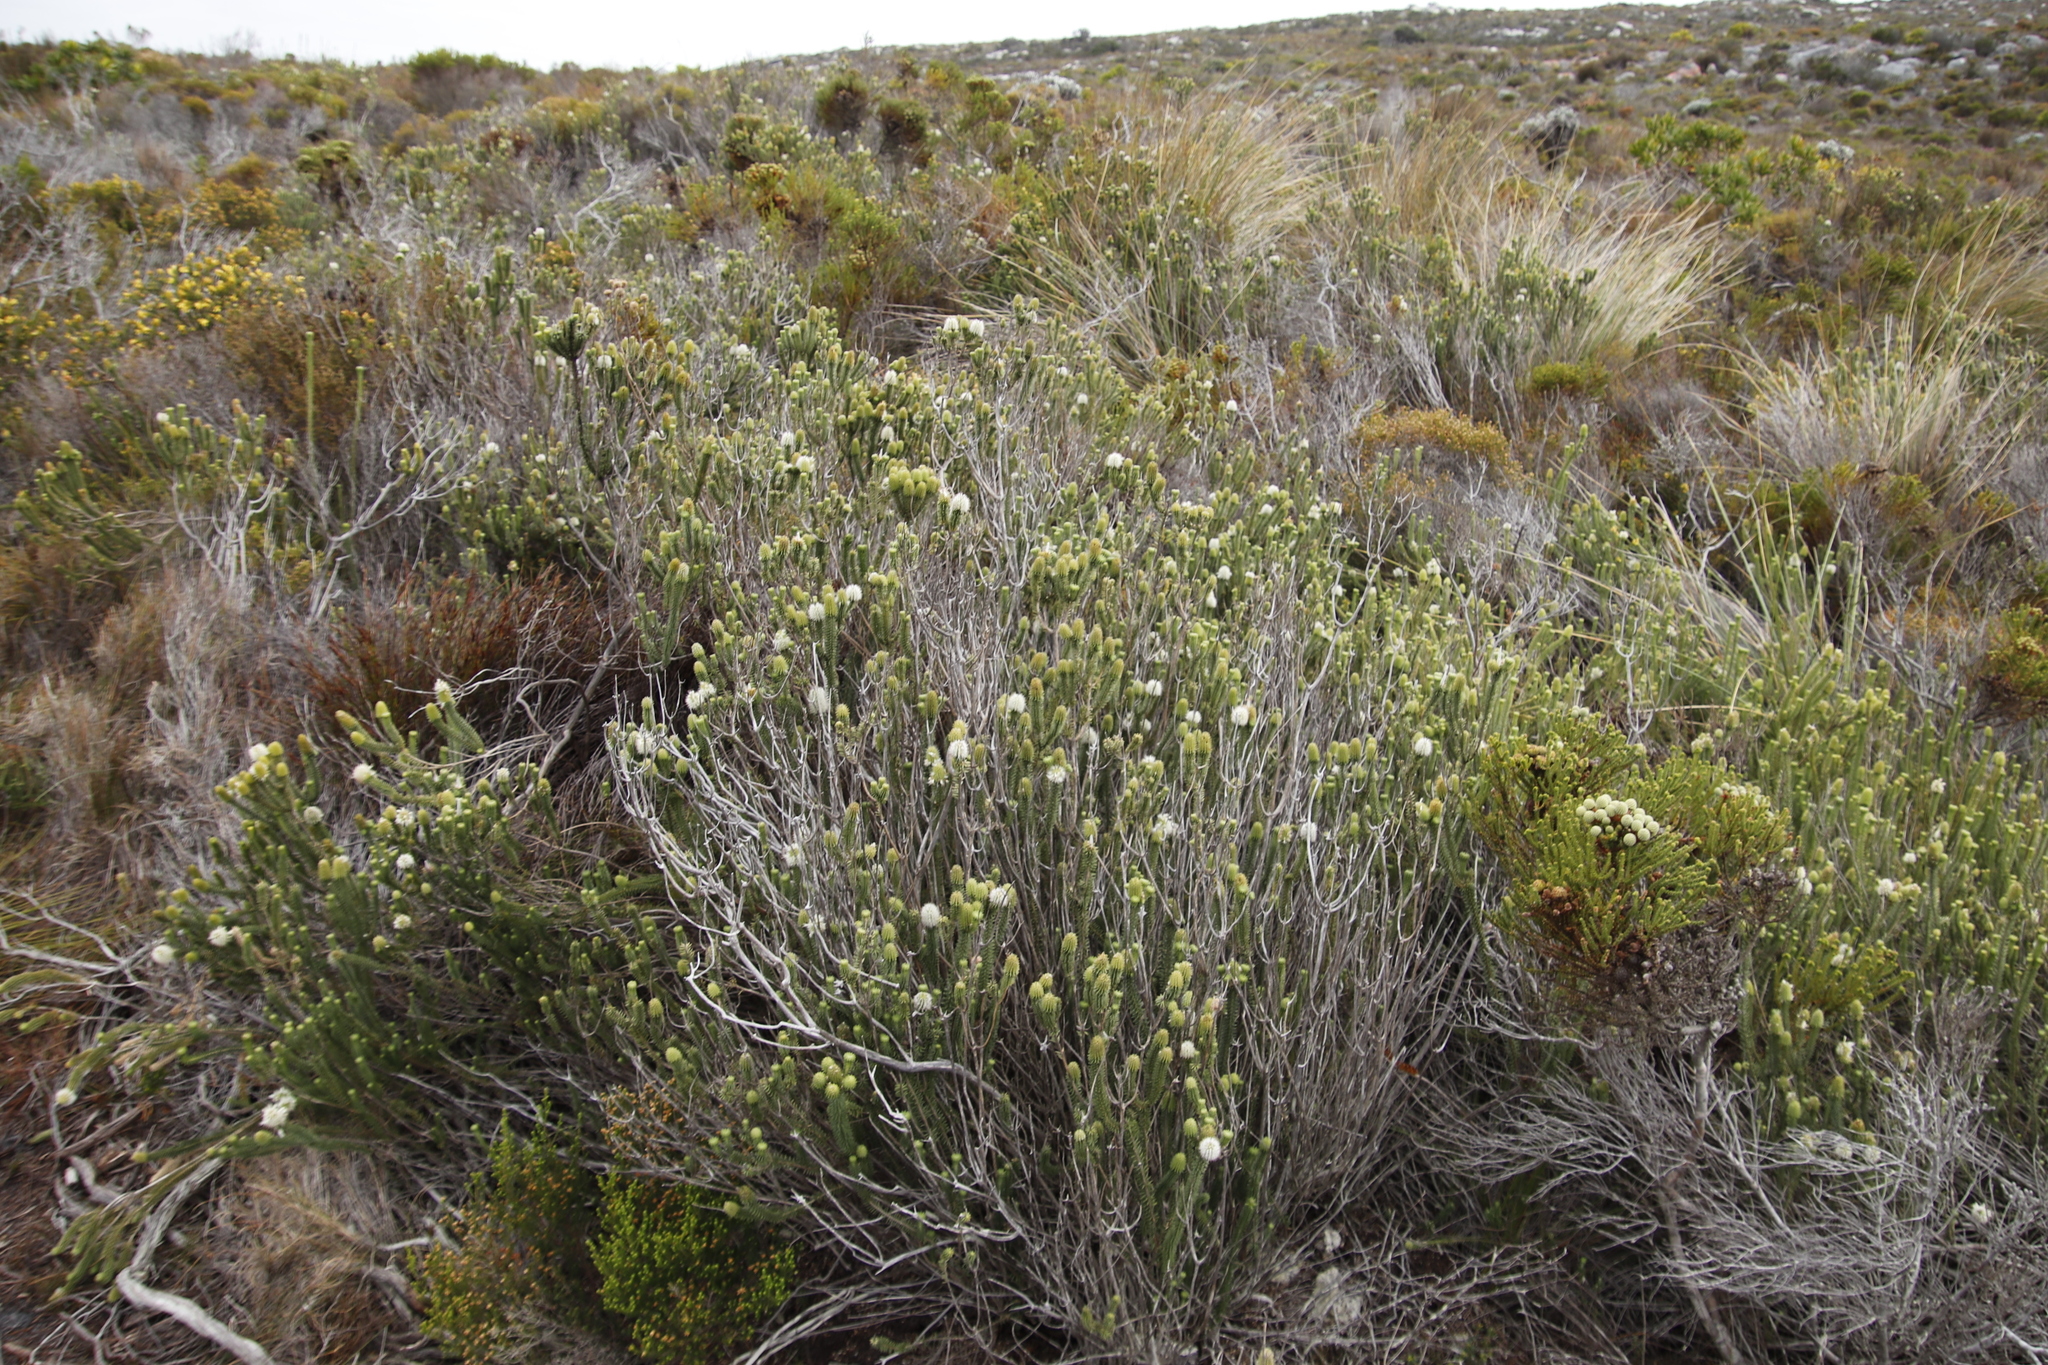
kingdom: Plantae
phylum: Tracheophyta
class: Magnoliopsida
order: Lamiales
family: Stilbaceae
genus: Stilbe
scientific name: Stilbe vestita
